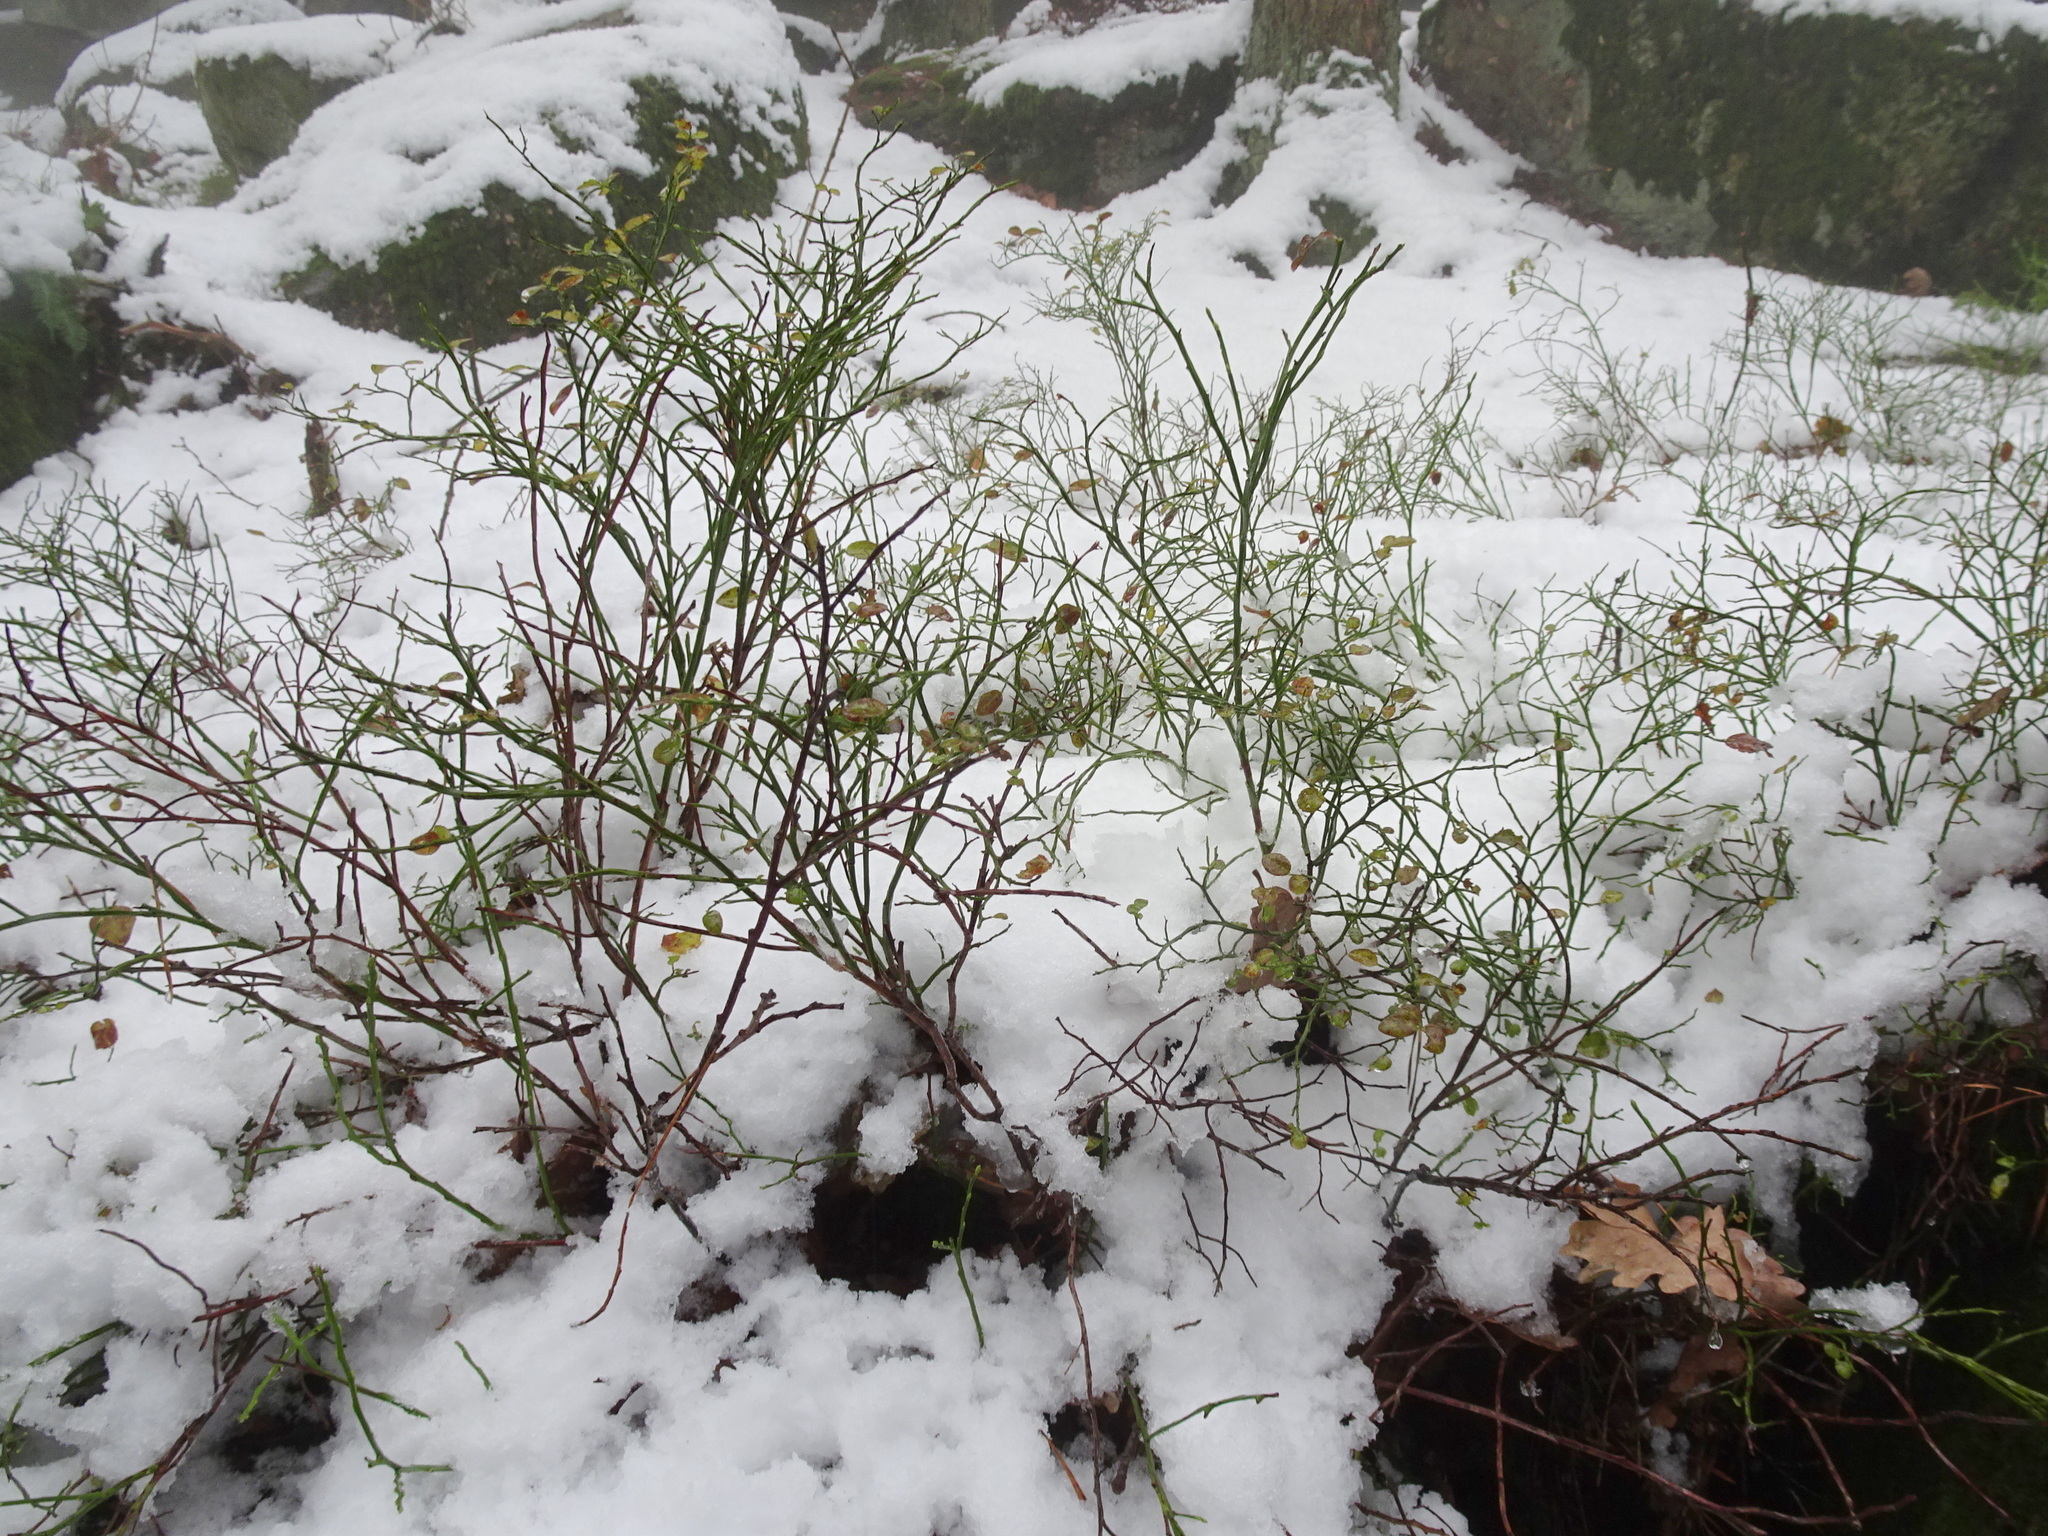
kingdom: Plantae
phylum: Tracheophyta
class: Magnoliopsida
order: Ericales
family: Ericaceae
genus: Vaccinium
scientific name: Vaccinium myrtillus
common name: Bilberry
